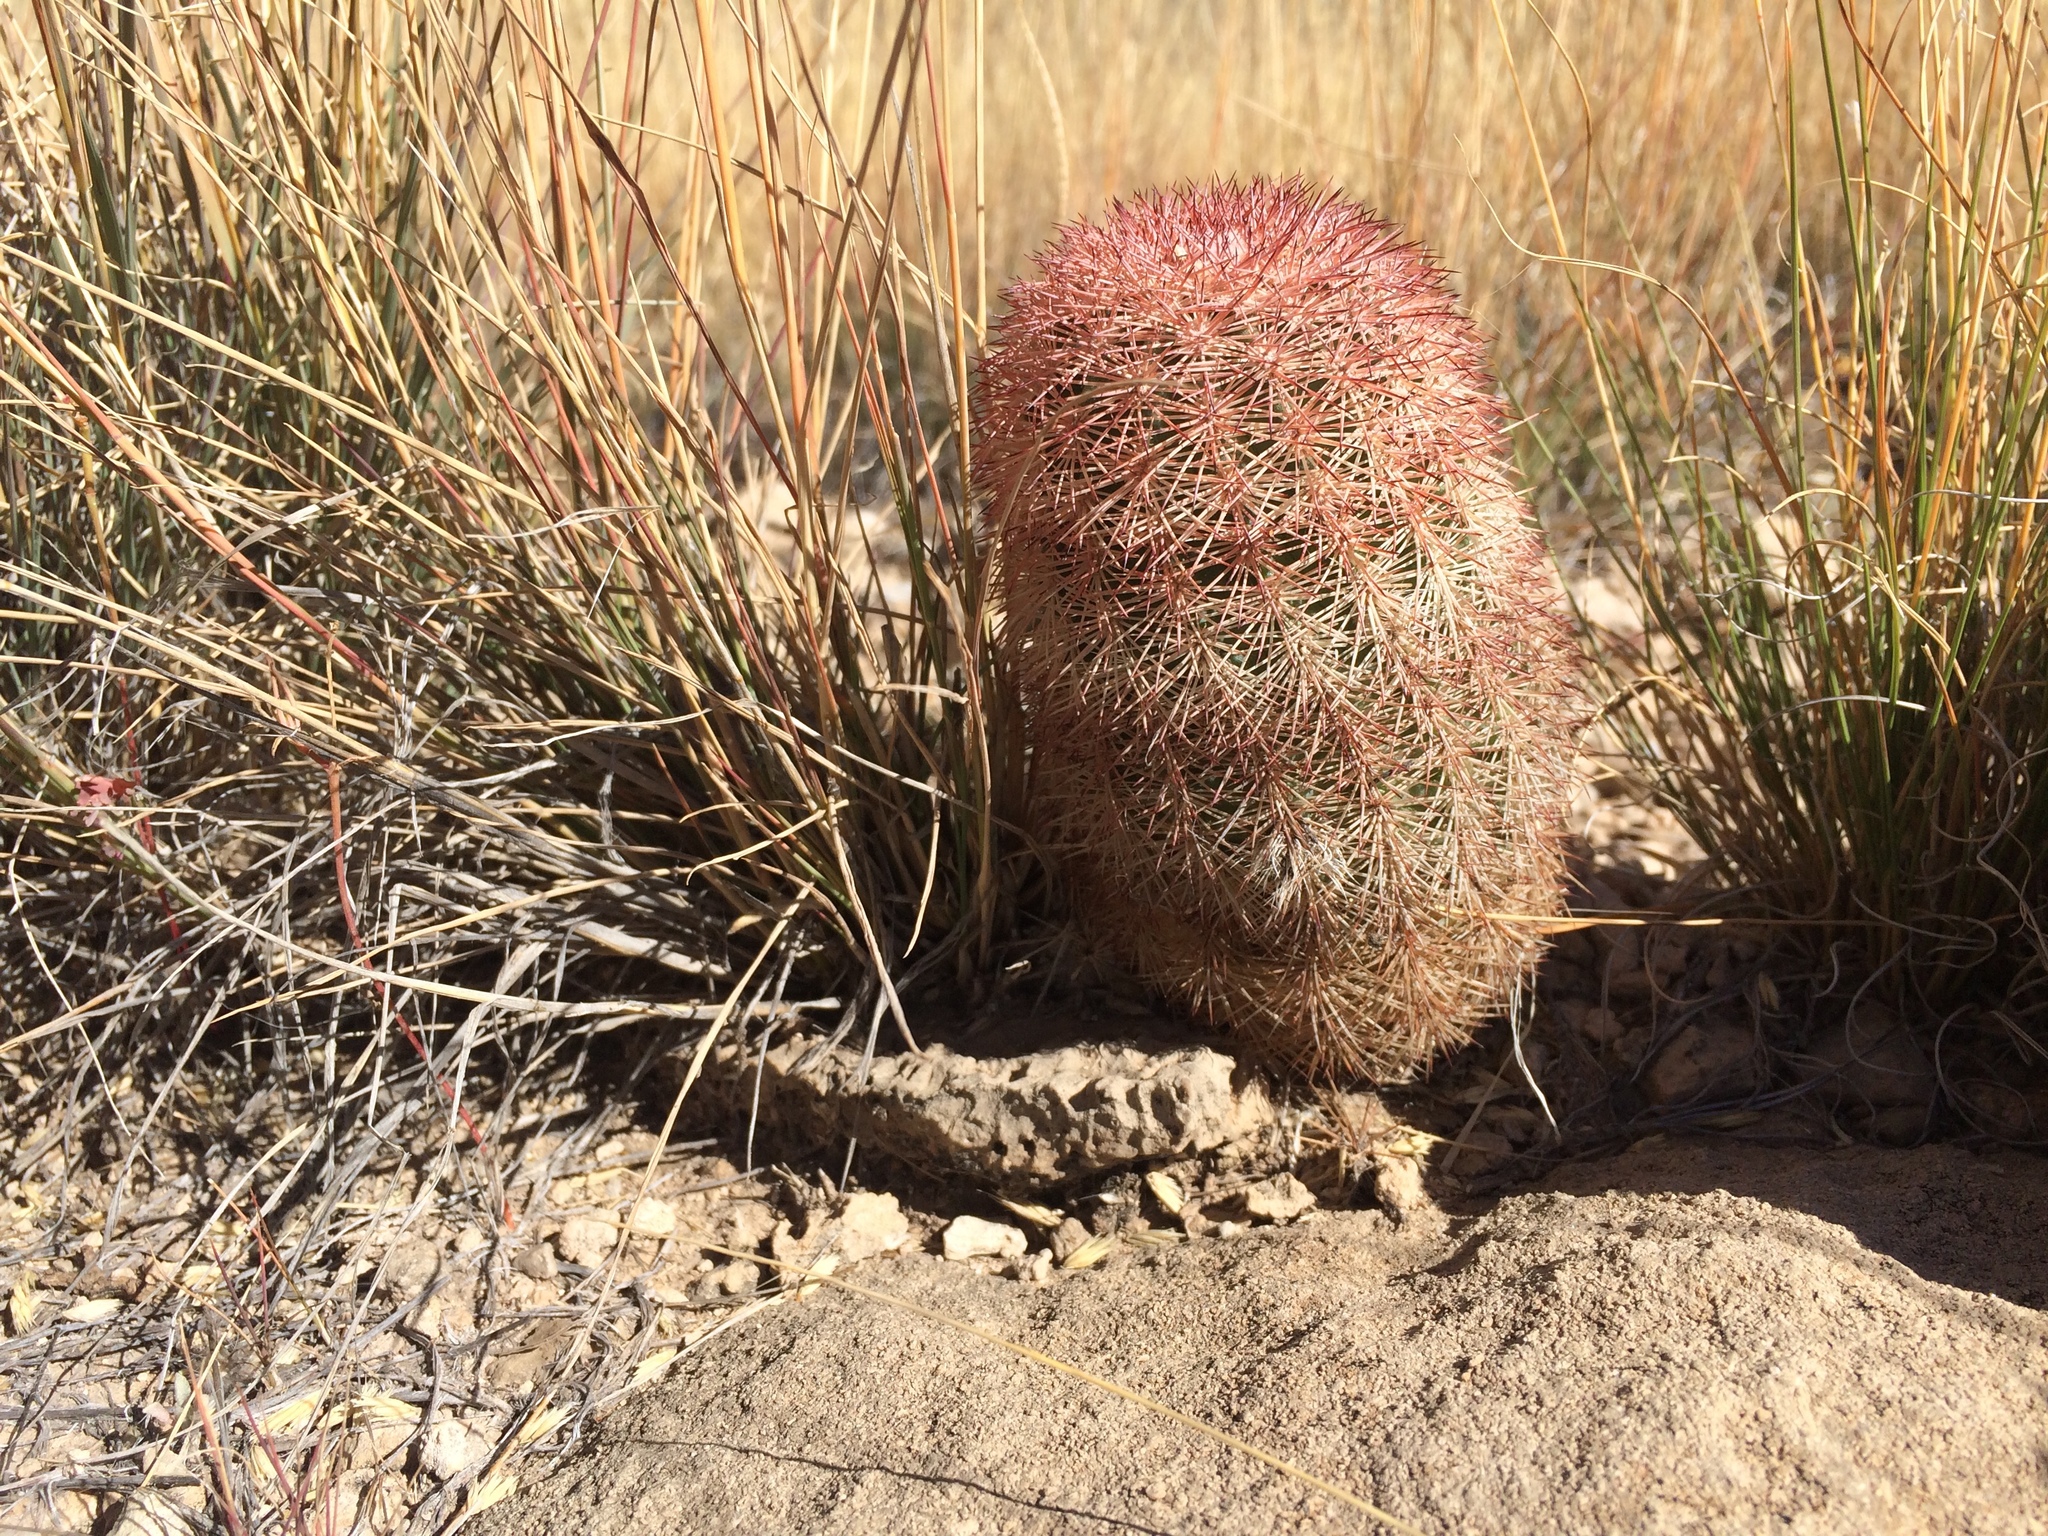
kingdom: Plantae
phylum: Tracheophyta
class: Magnoliopsida
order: Caryophyllales
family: Cactaceae
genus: Echinocereus
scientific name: Echinocereus dasyacanthus
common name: Spiny hedgehog cactus
